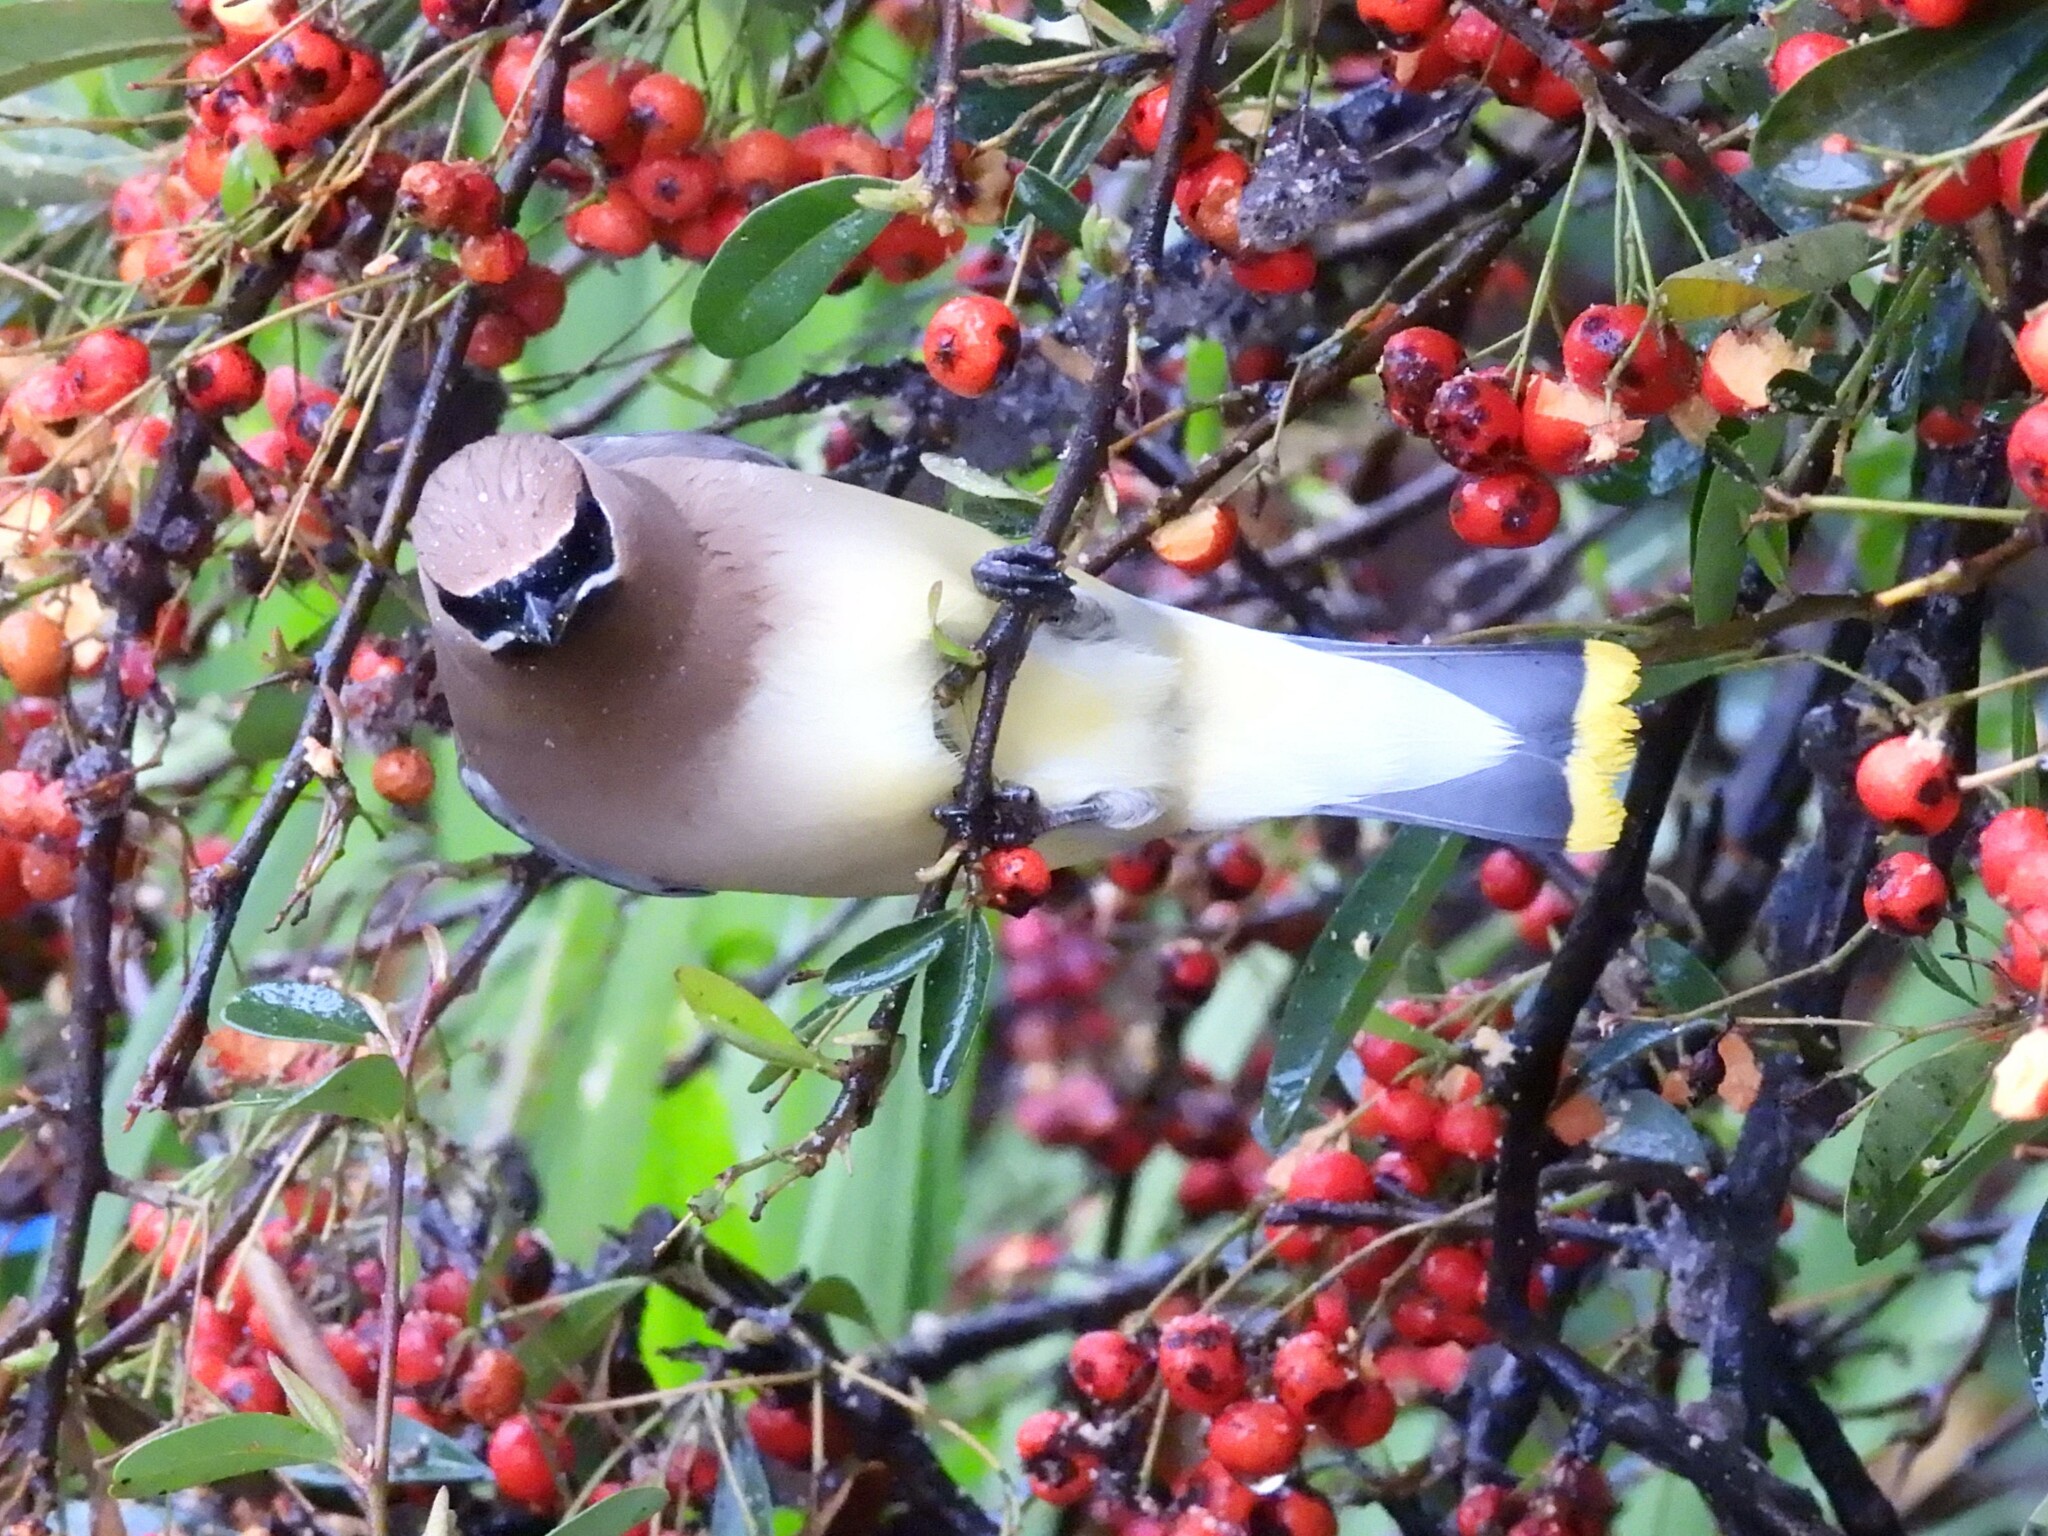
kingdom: Animalia
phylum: Chordata
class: Aves
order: Passeriformes
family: Bombycillidae
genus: Bombycilla
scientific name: Bombycilla cedrorum
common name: Cedar waxwing
